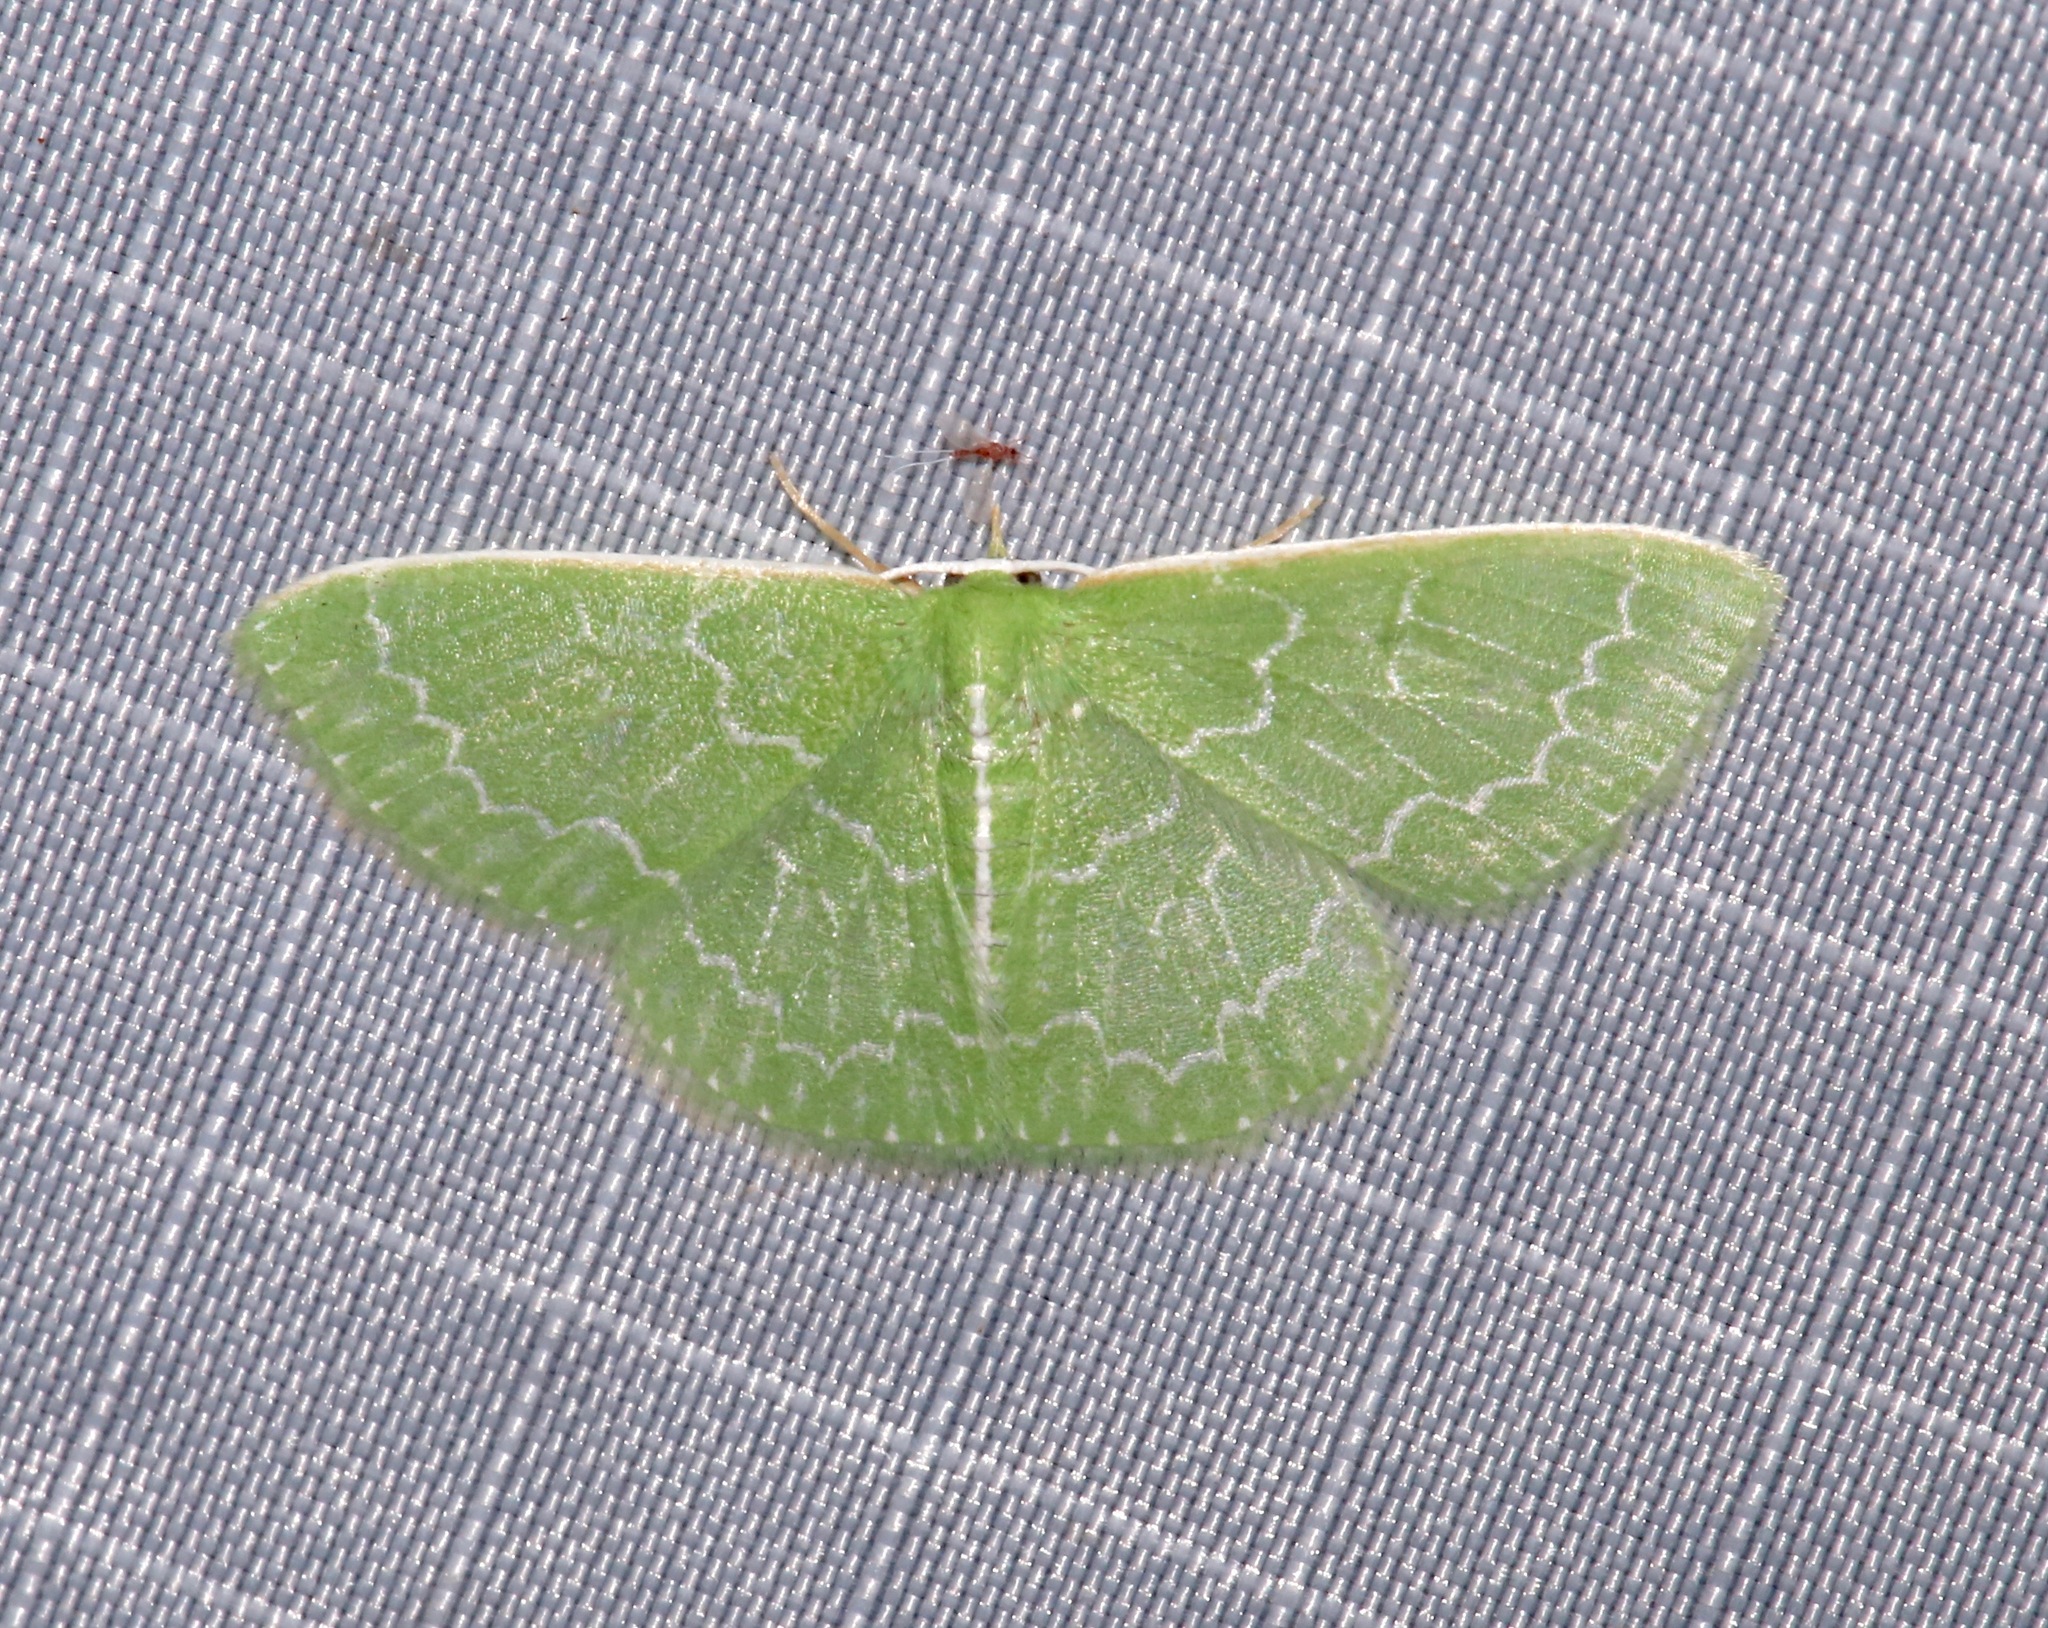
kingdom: Animalia
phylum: Arthropoda
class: Insecta
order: Lepidoptera
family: Geometridae
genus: Synchlora
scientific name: Synchlora frondaria
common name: Southern emerald
